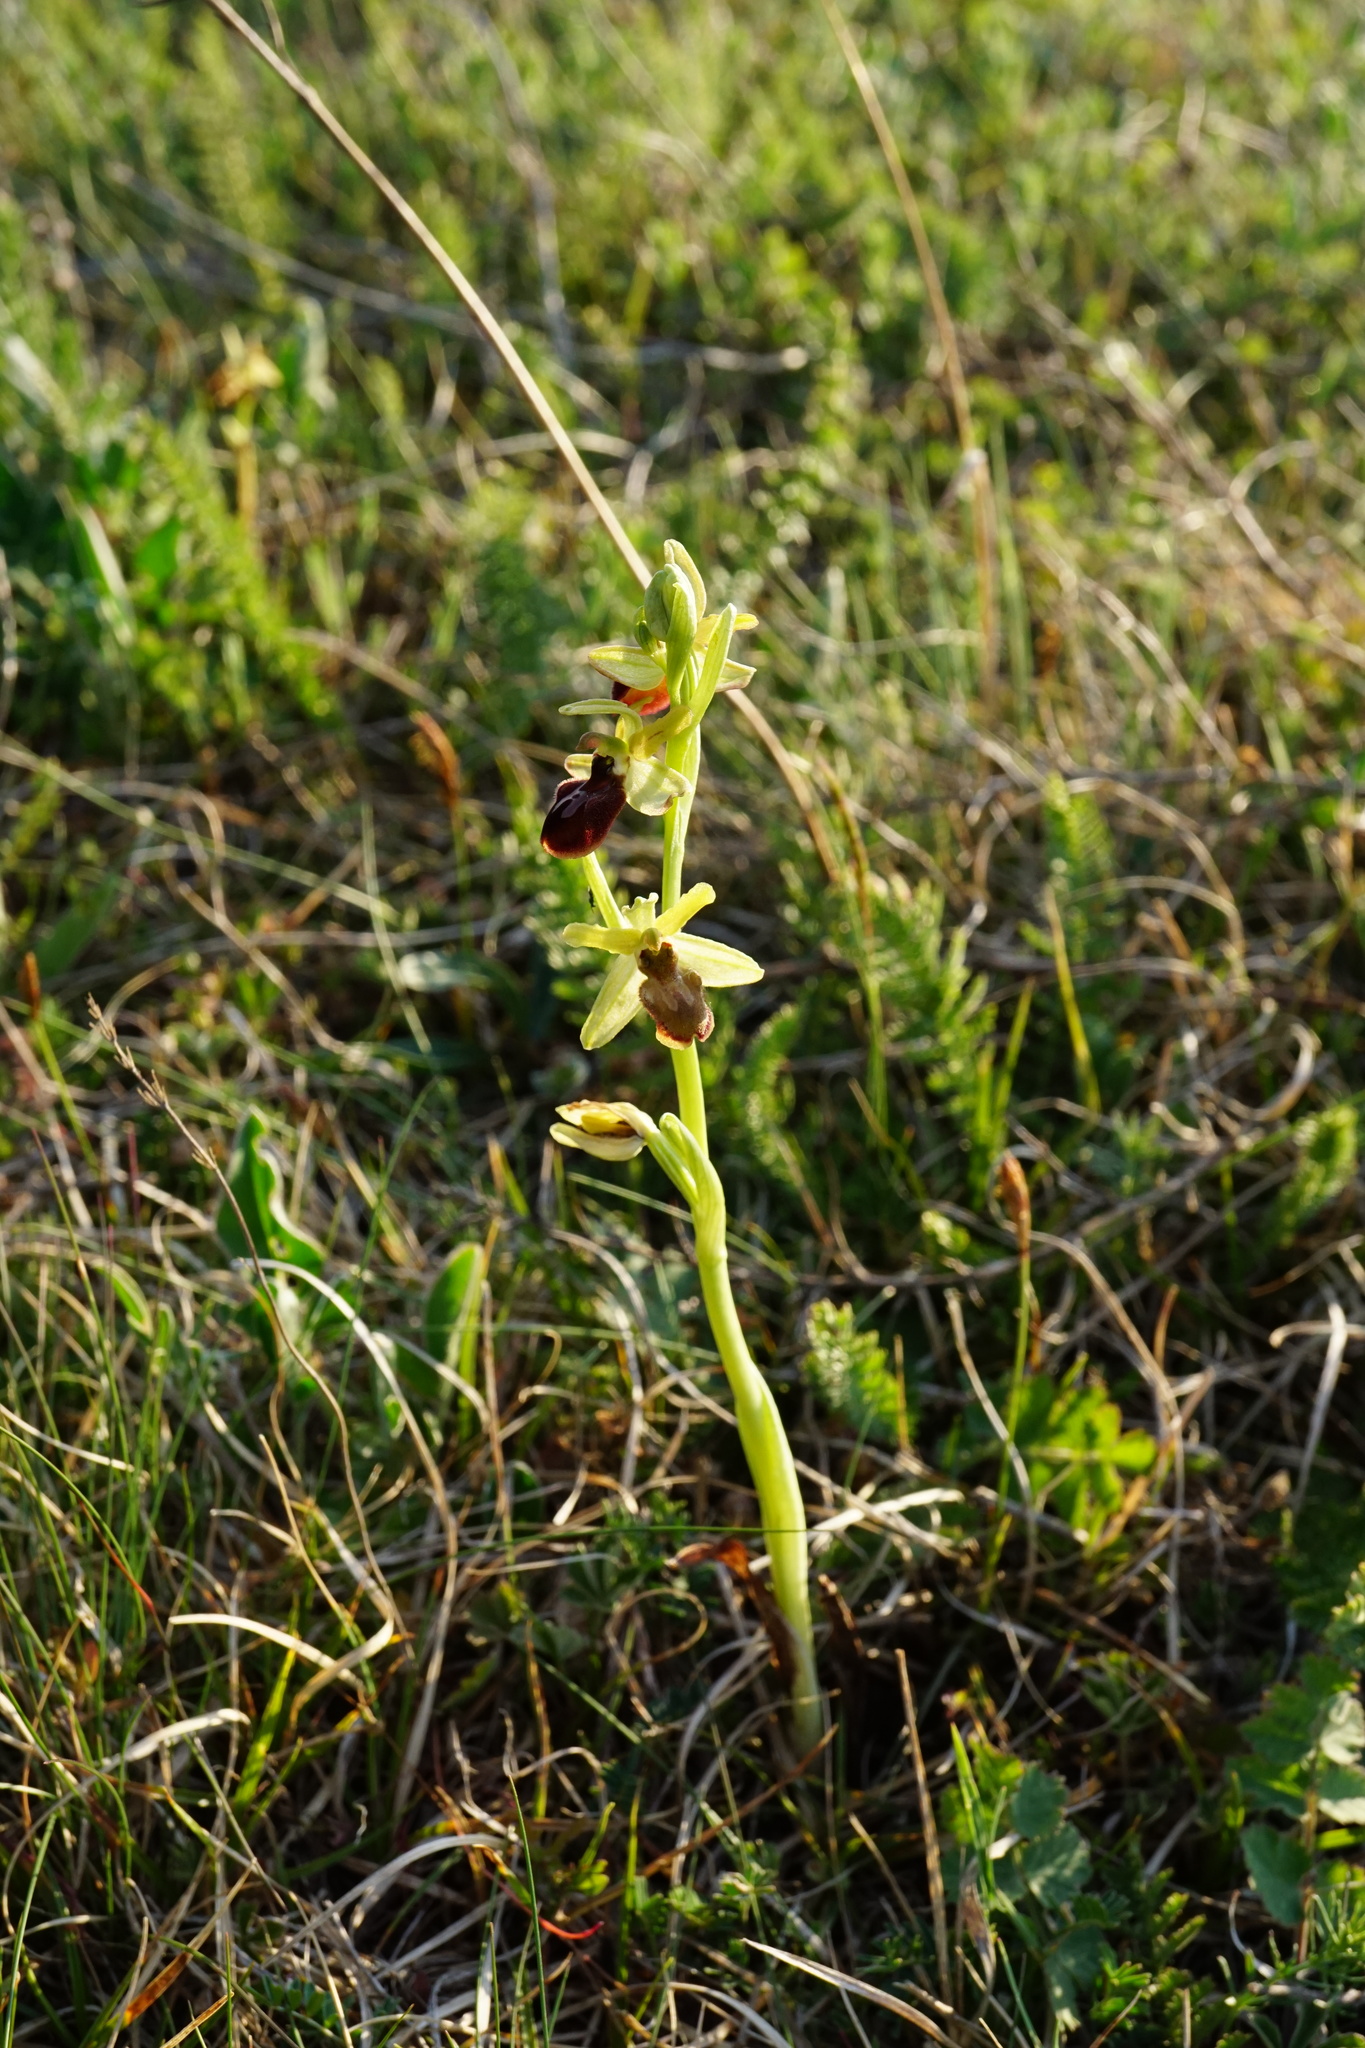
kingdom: Plantae
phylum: Tracheophyta
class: Liliopsida
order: Asparagales
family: Orchidaceae
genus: Ophrys
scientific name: Ophrys sphegodes
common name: Early spider-orchid
